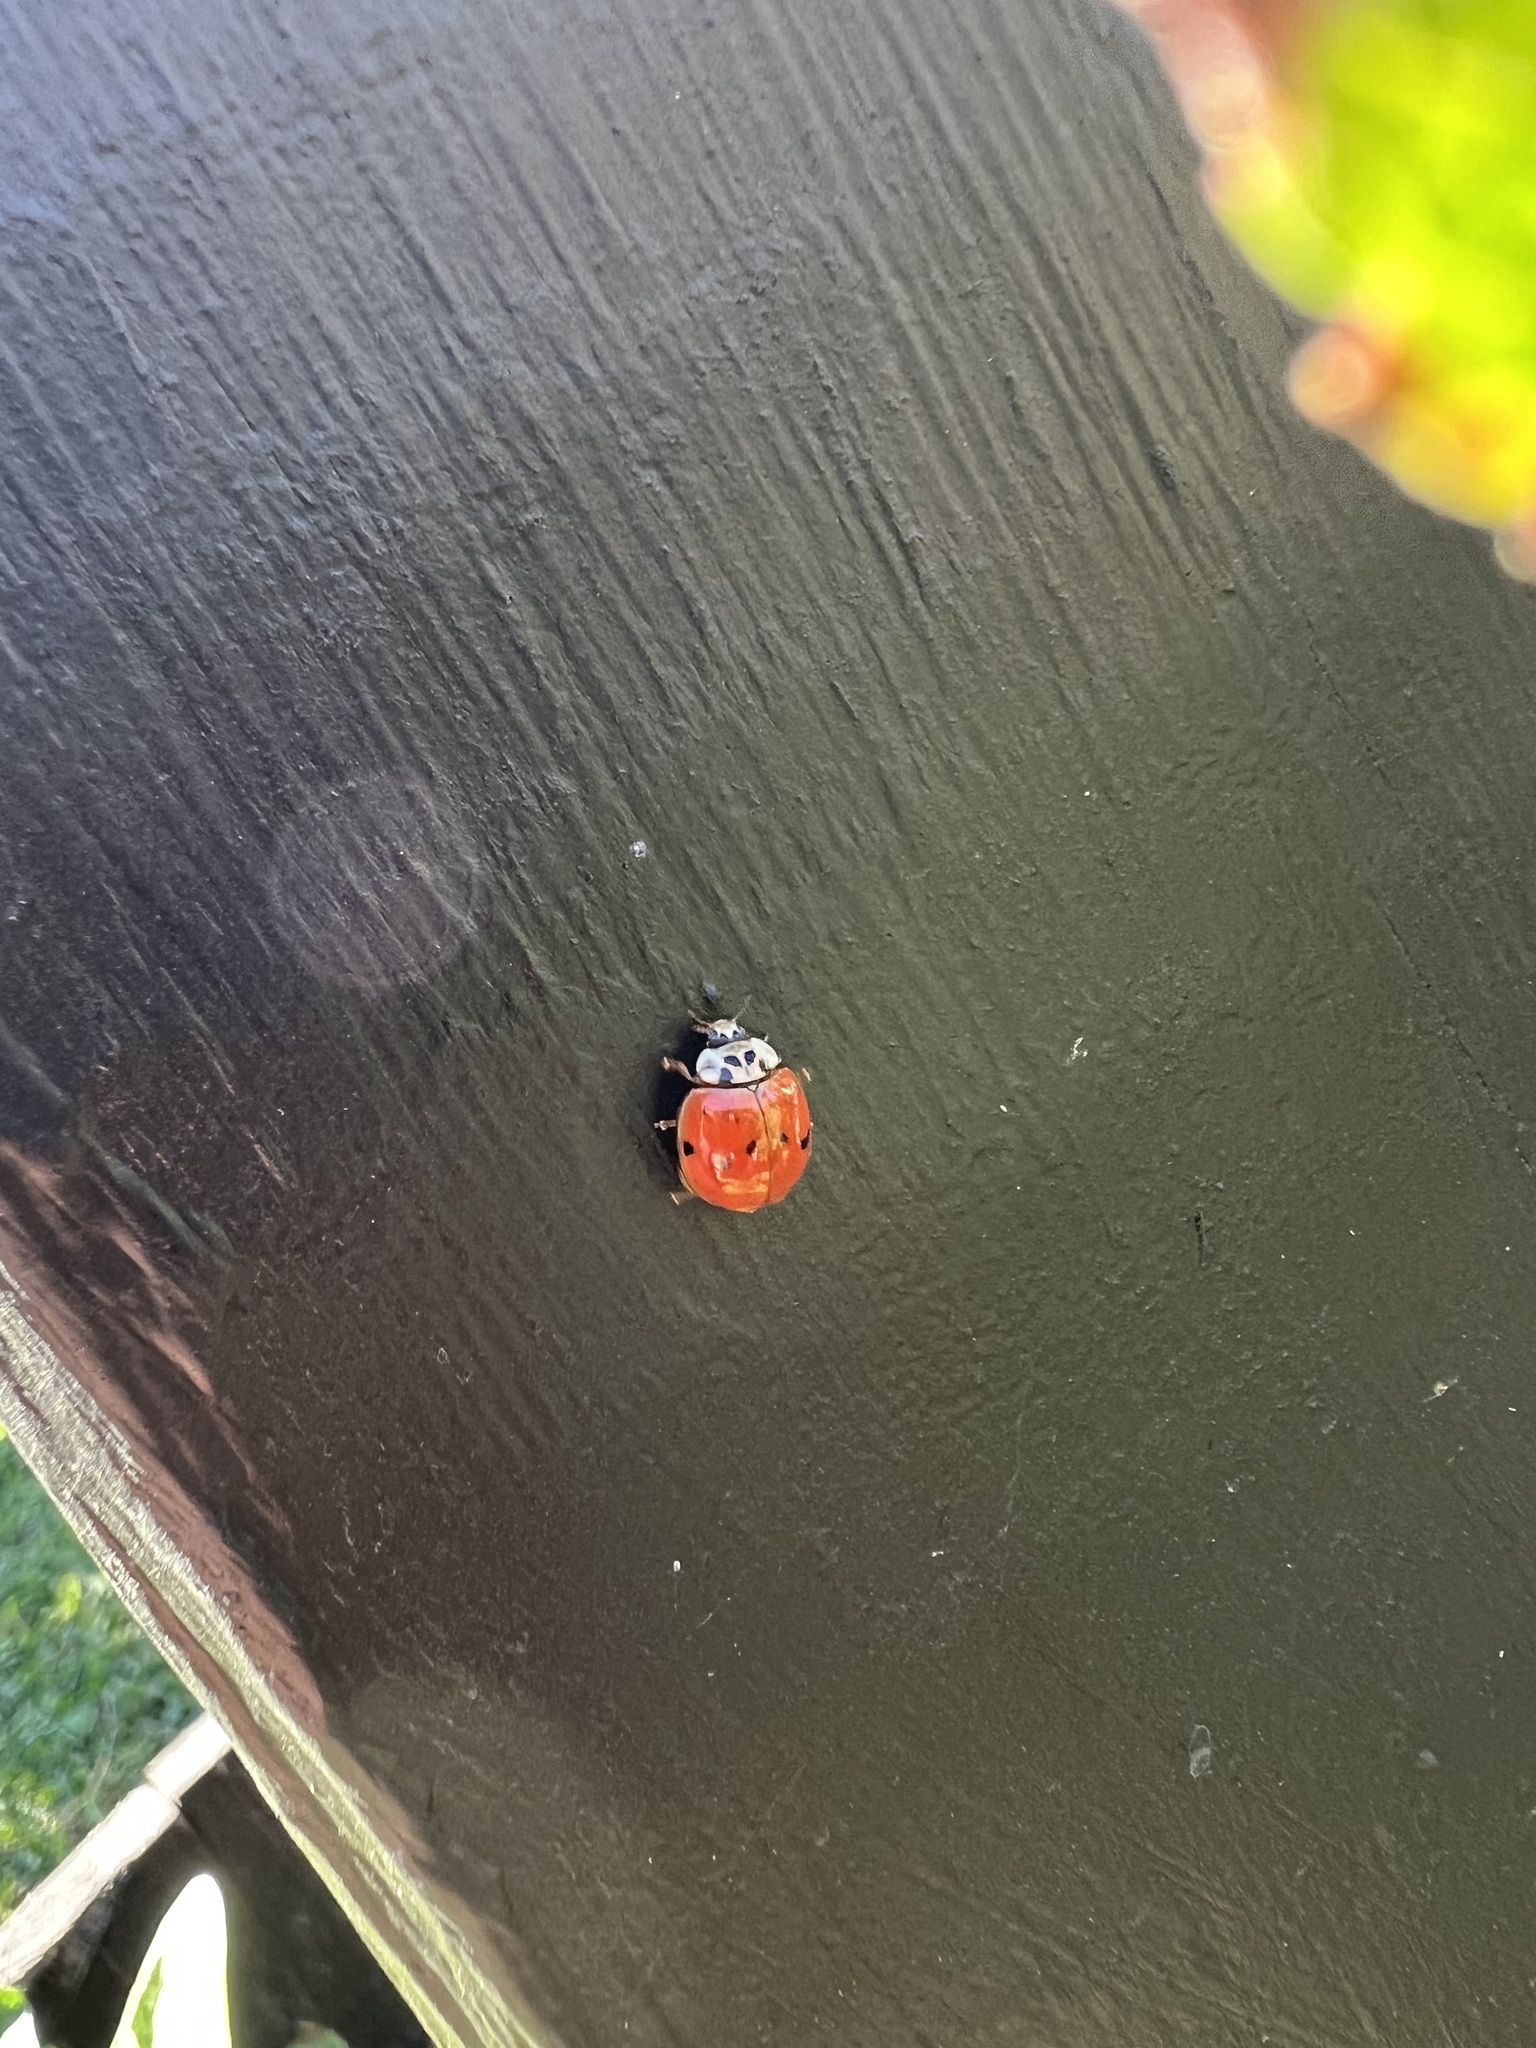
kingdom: Animalia
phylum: Arthropoda
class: Insecta
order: Coleoptera
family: Coccinellidae
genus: Harmonia
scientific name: Harmonia axyridis
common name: Harlequin ladybird
